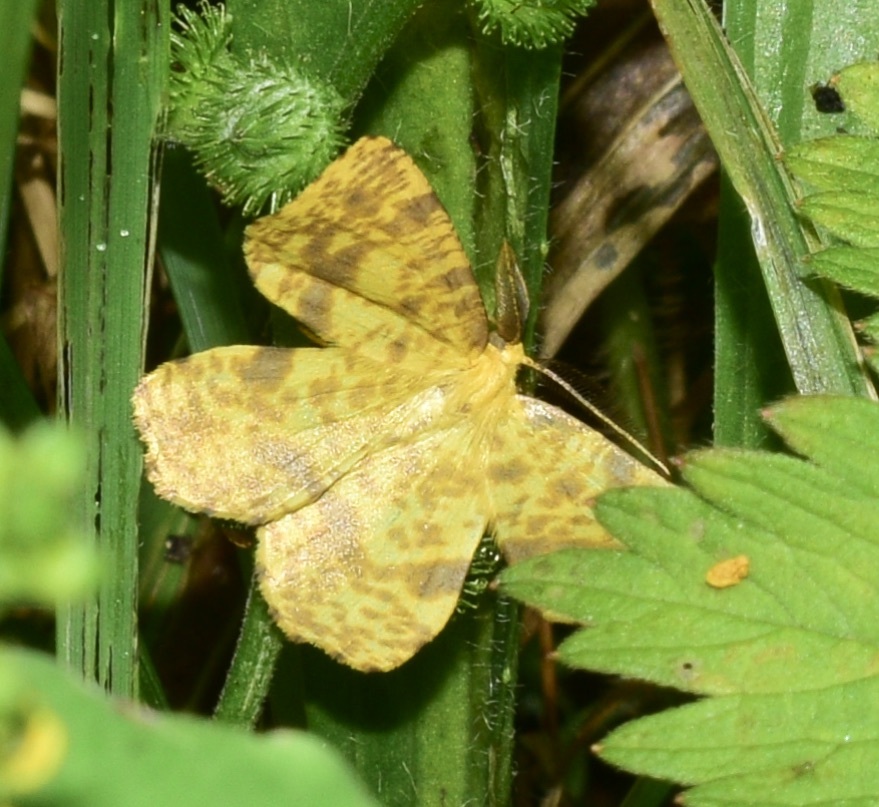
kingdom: Animalia
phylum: Arthropoda
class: Insecta
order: Lepidoptera
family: Geometridae
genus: Xanthotype
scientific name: Xanthotype
